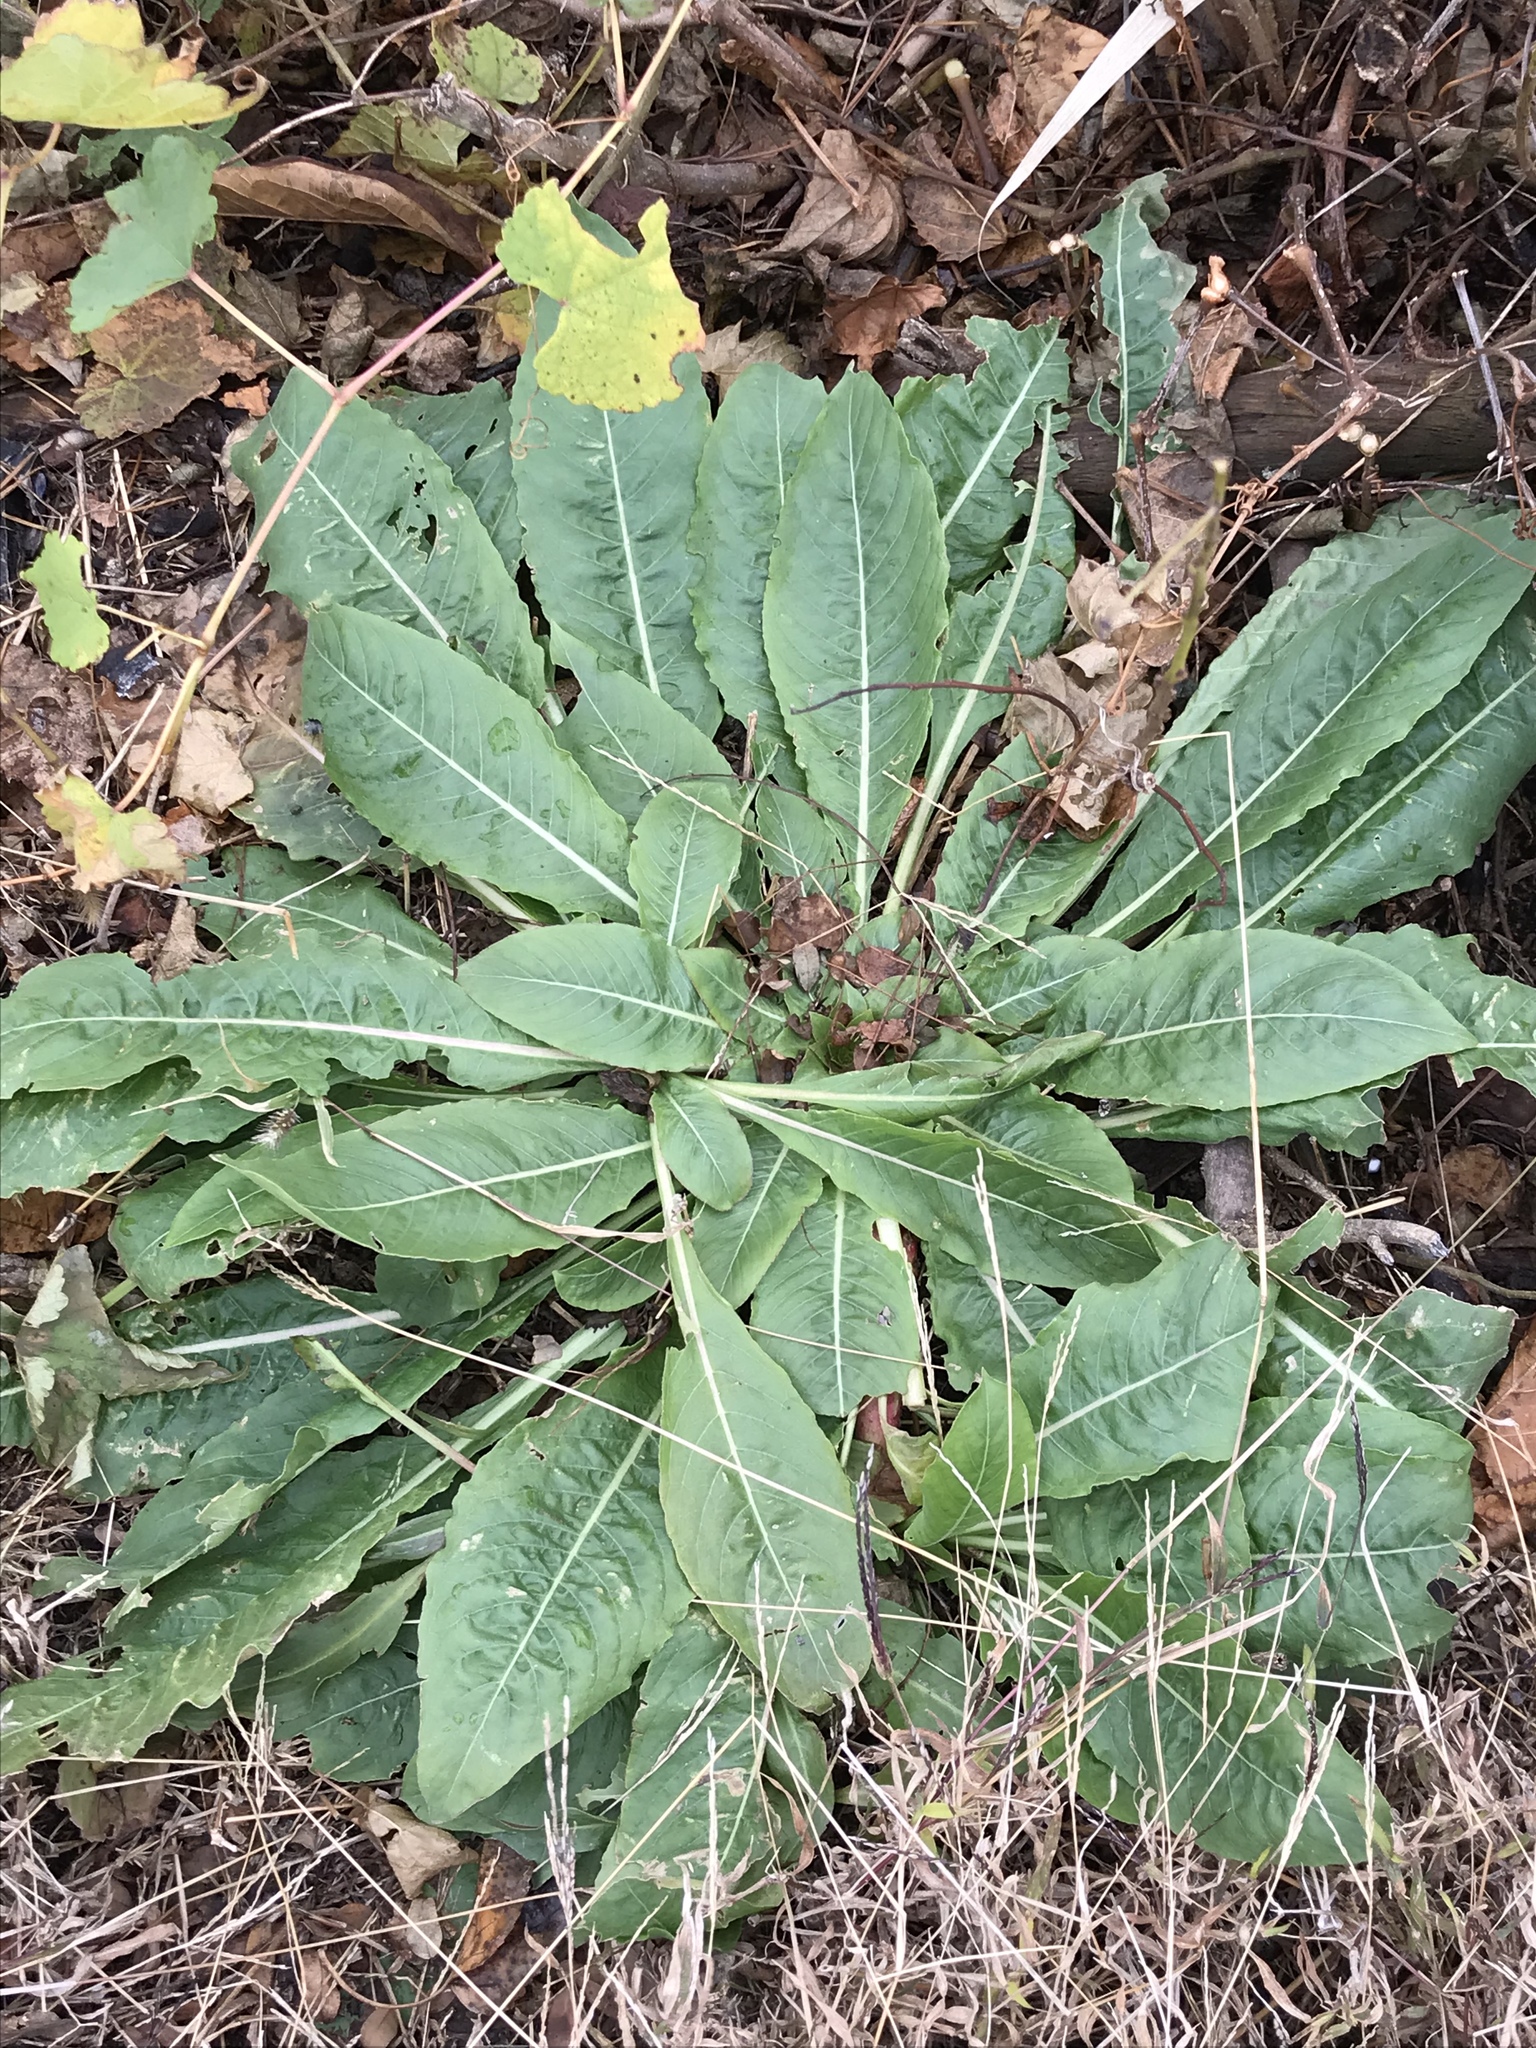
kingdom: Plantae
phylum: Tracheophyta
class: Magnoliopsida
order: Myrtales
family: Onagraceae
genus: Oenothera
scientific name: Oenothera biennis
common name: Common evening-primrose
